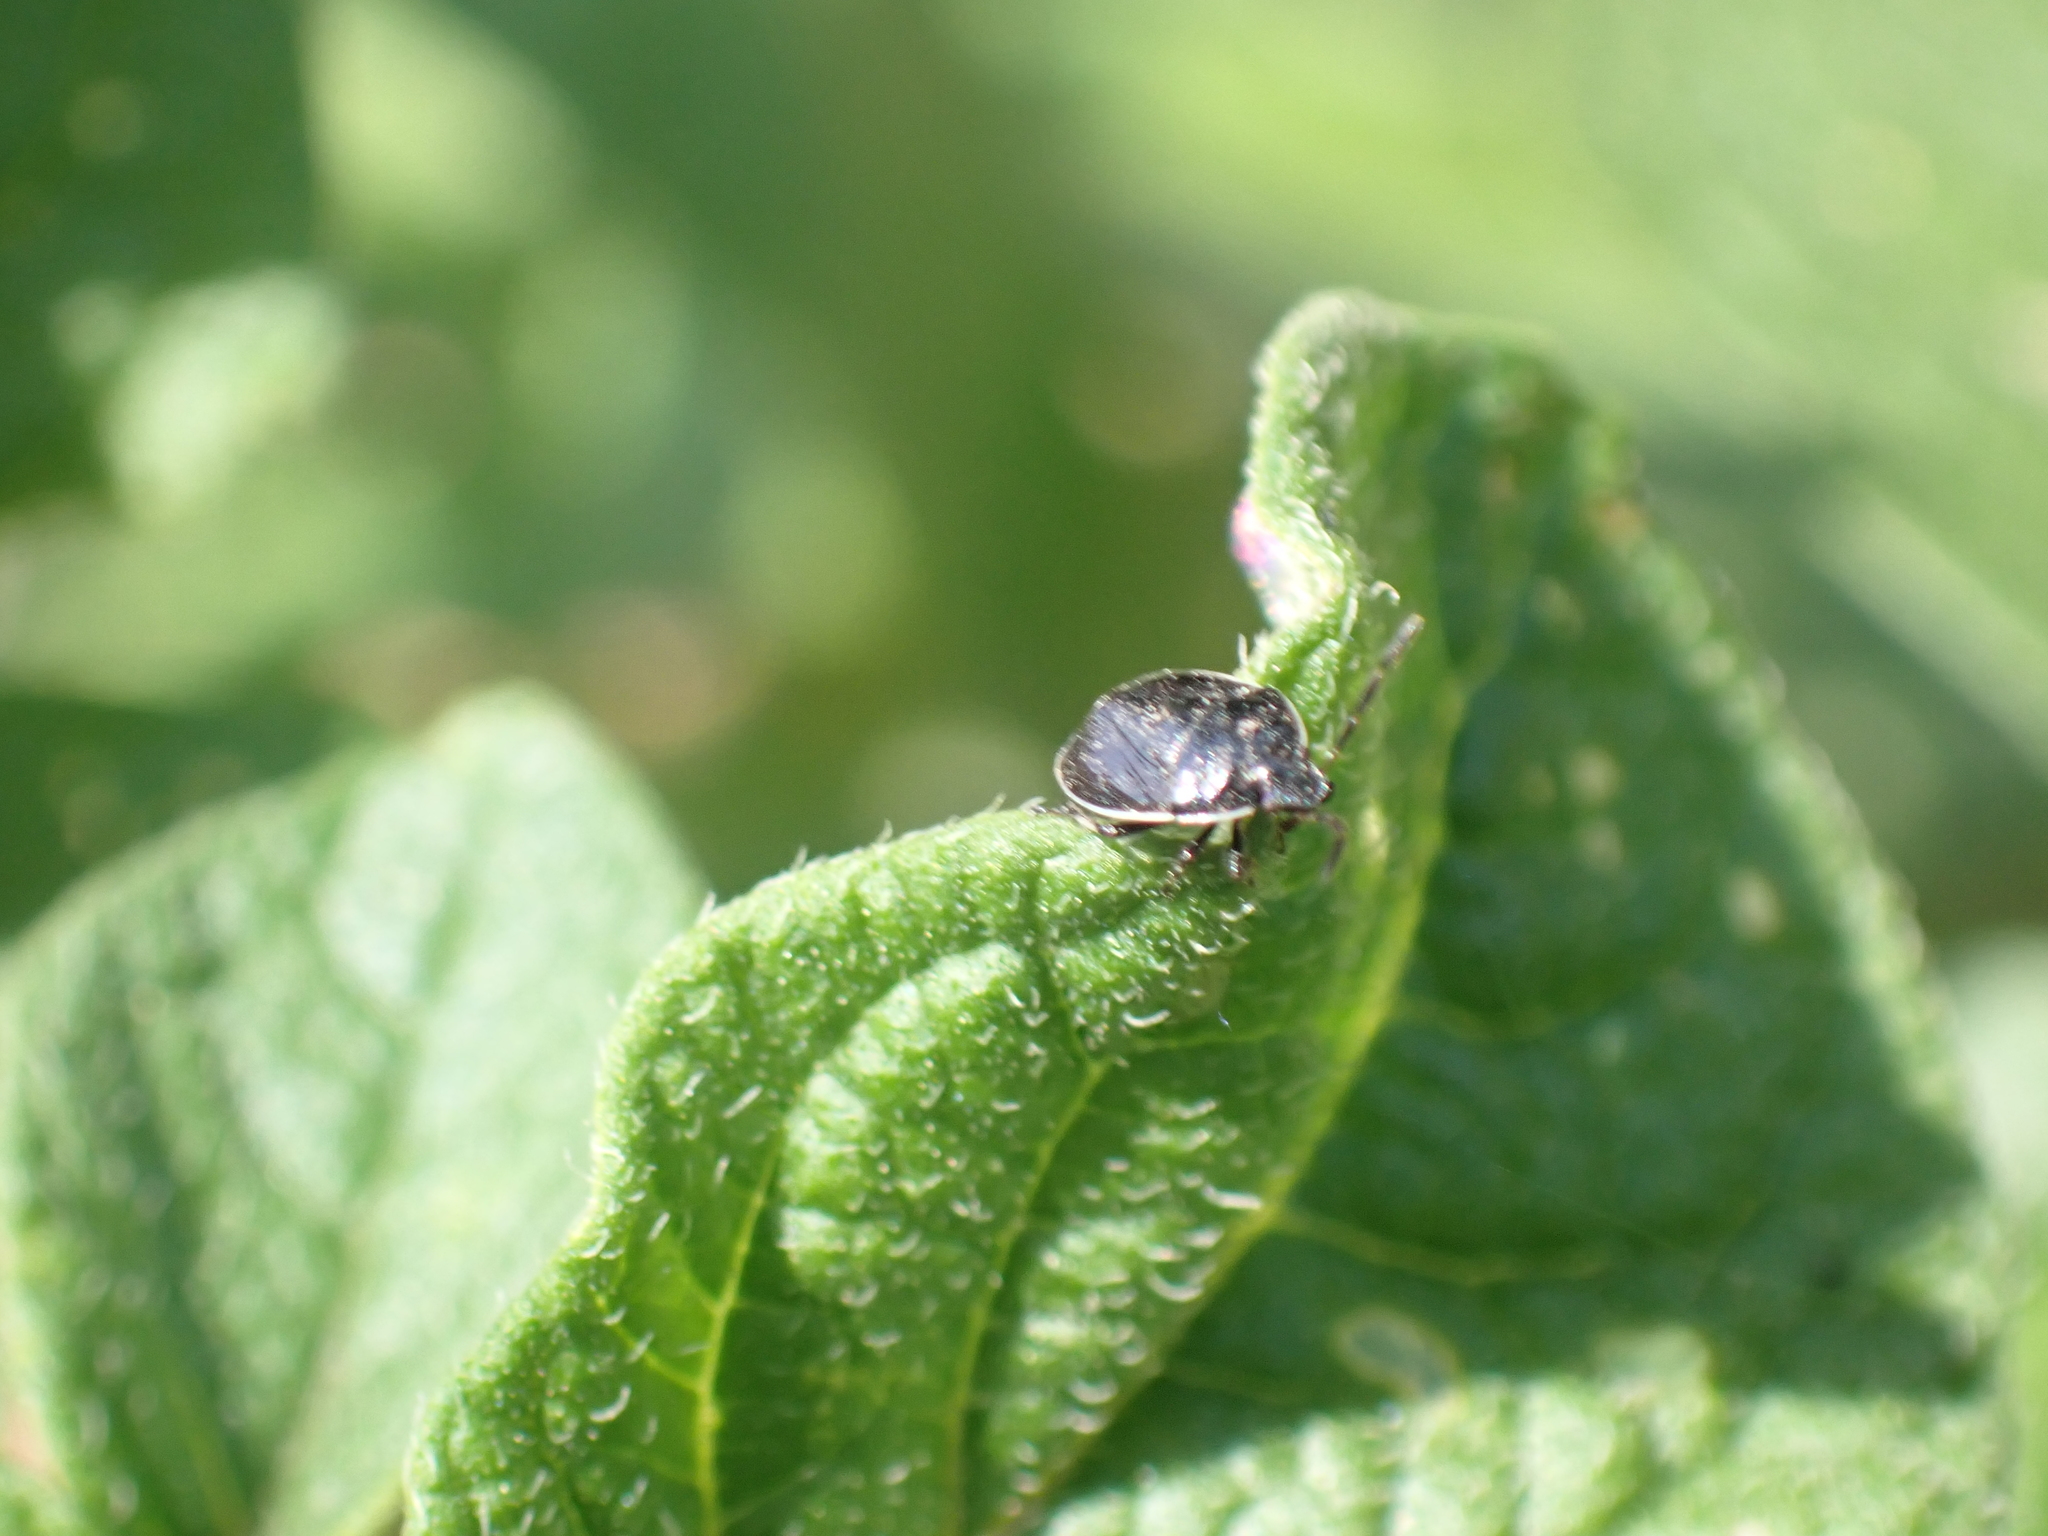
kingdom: Animalia
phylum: Arthropoda
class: Insecta
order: Hemiptera
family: Cydnidae
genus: Sehirus
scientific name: Sehirus cinctus
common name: White-margined burrower bug
